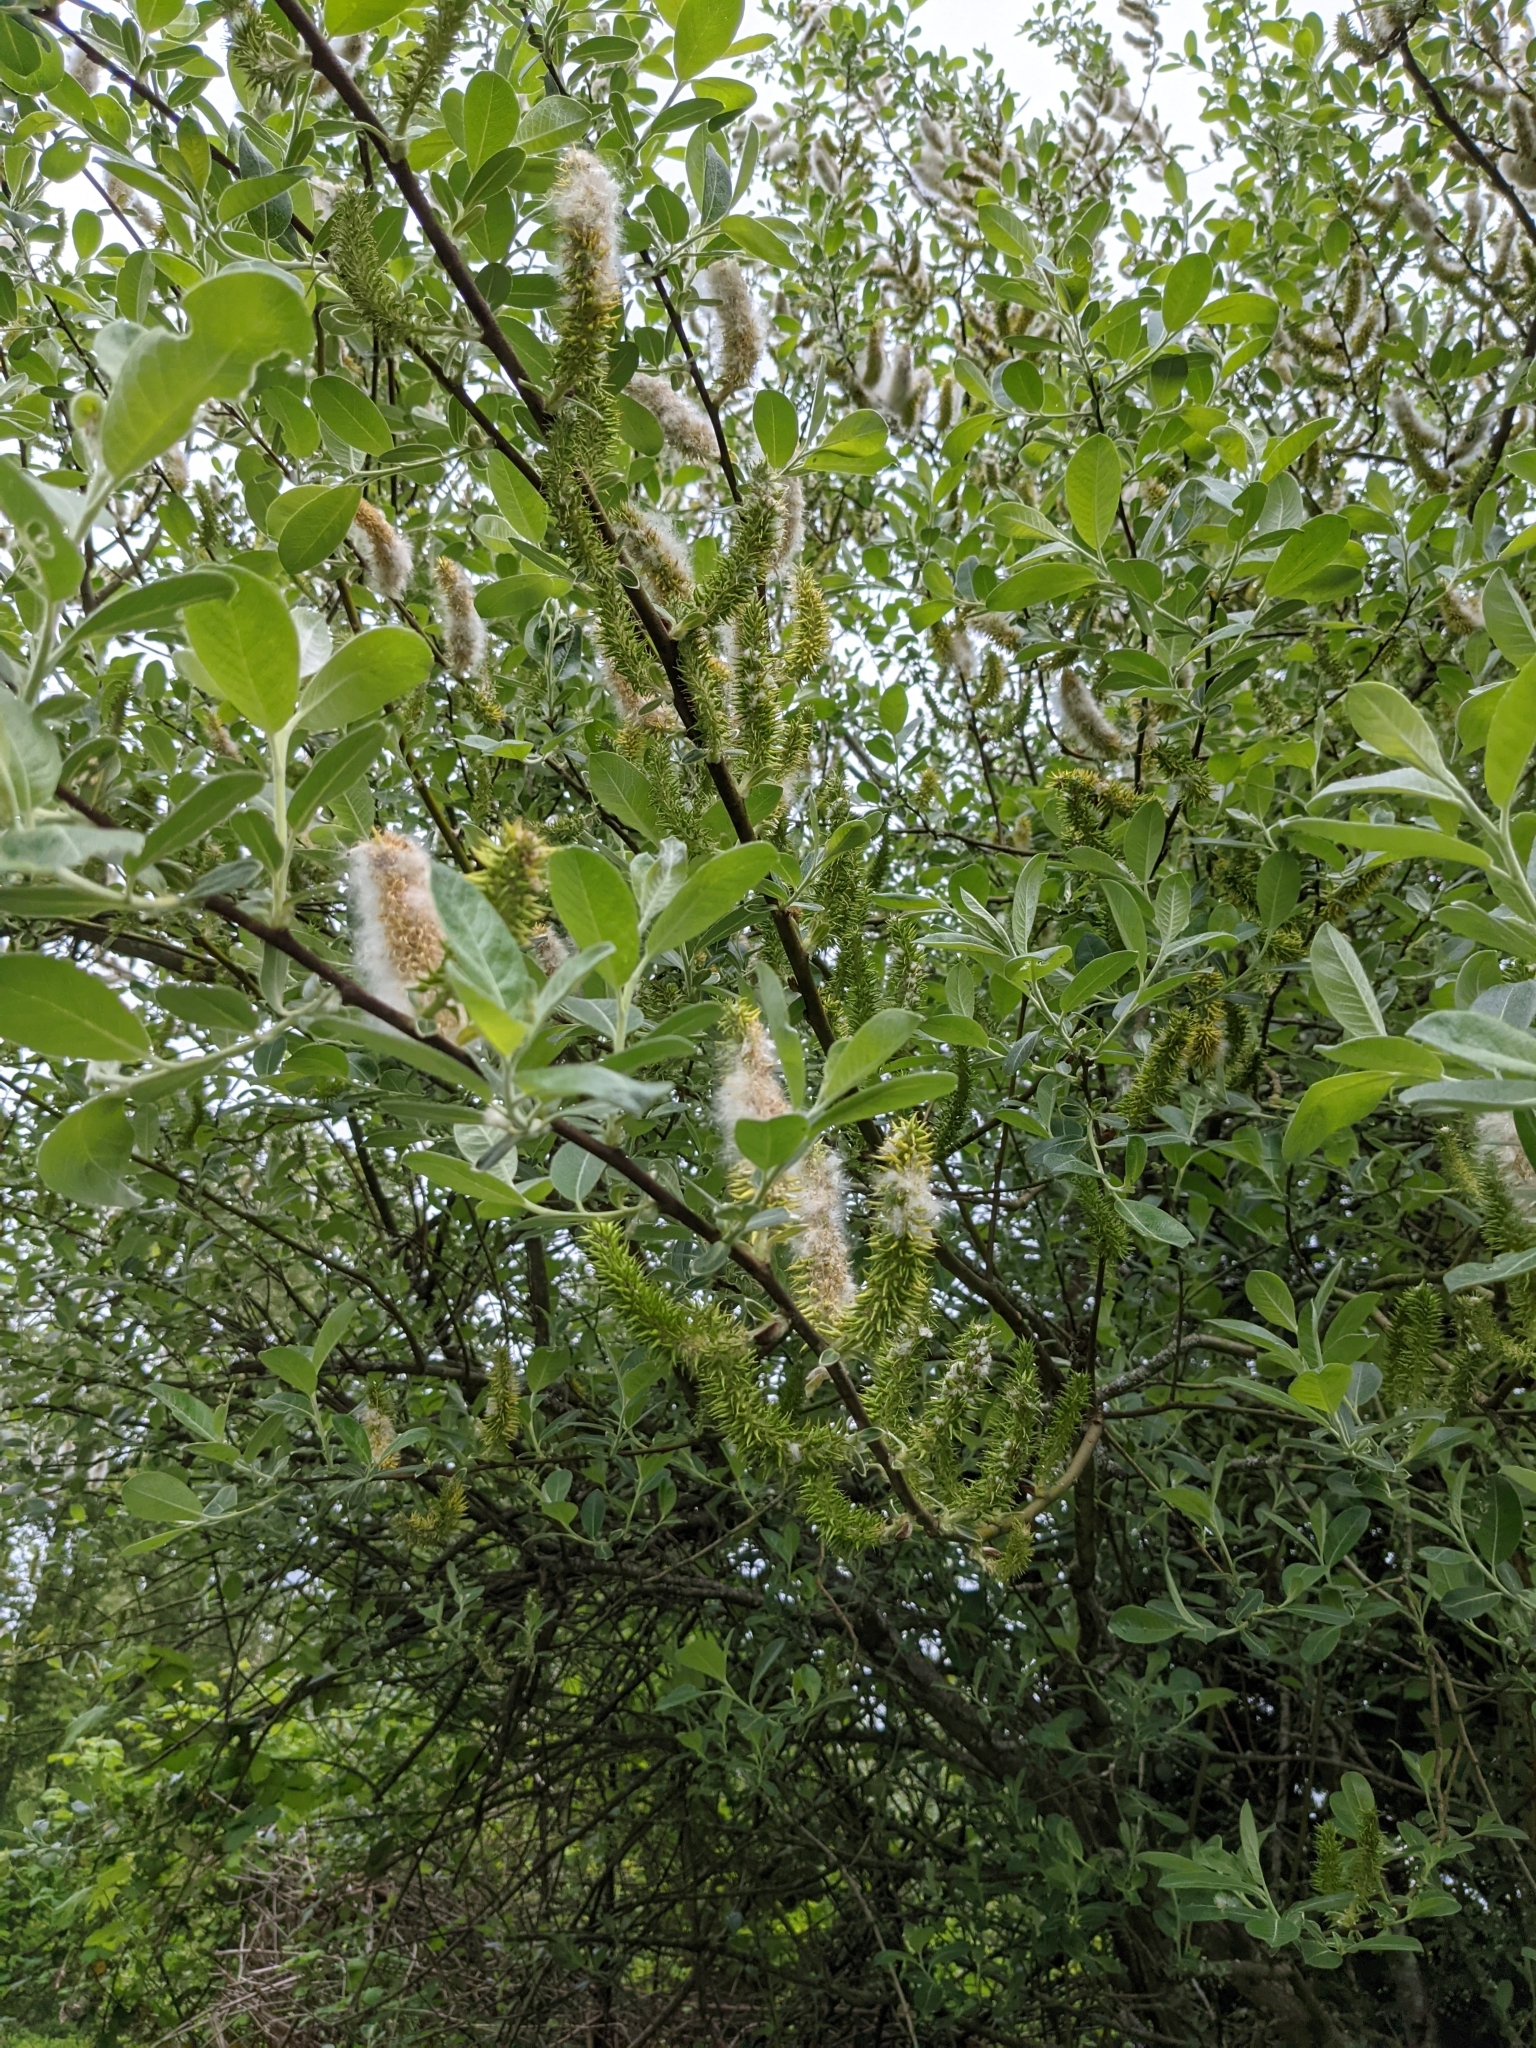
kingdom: Plantae
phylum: Tracheophyta
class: Magnoliopsida
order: Malpighiales
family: Salicaceae
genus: Salix
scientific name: Salix sitchensis
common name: Sitka willow
